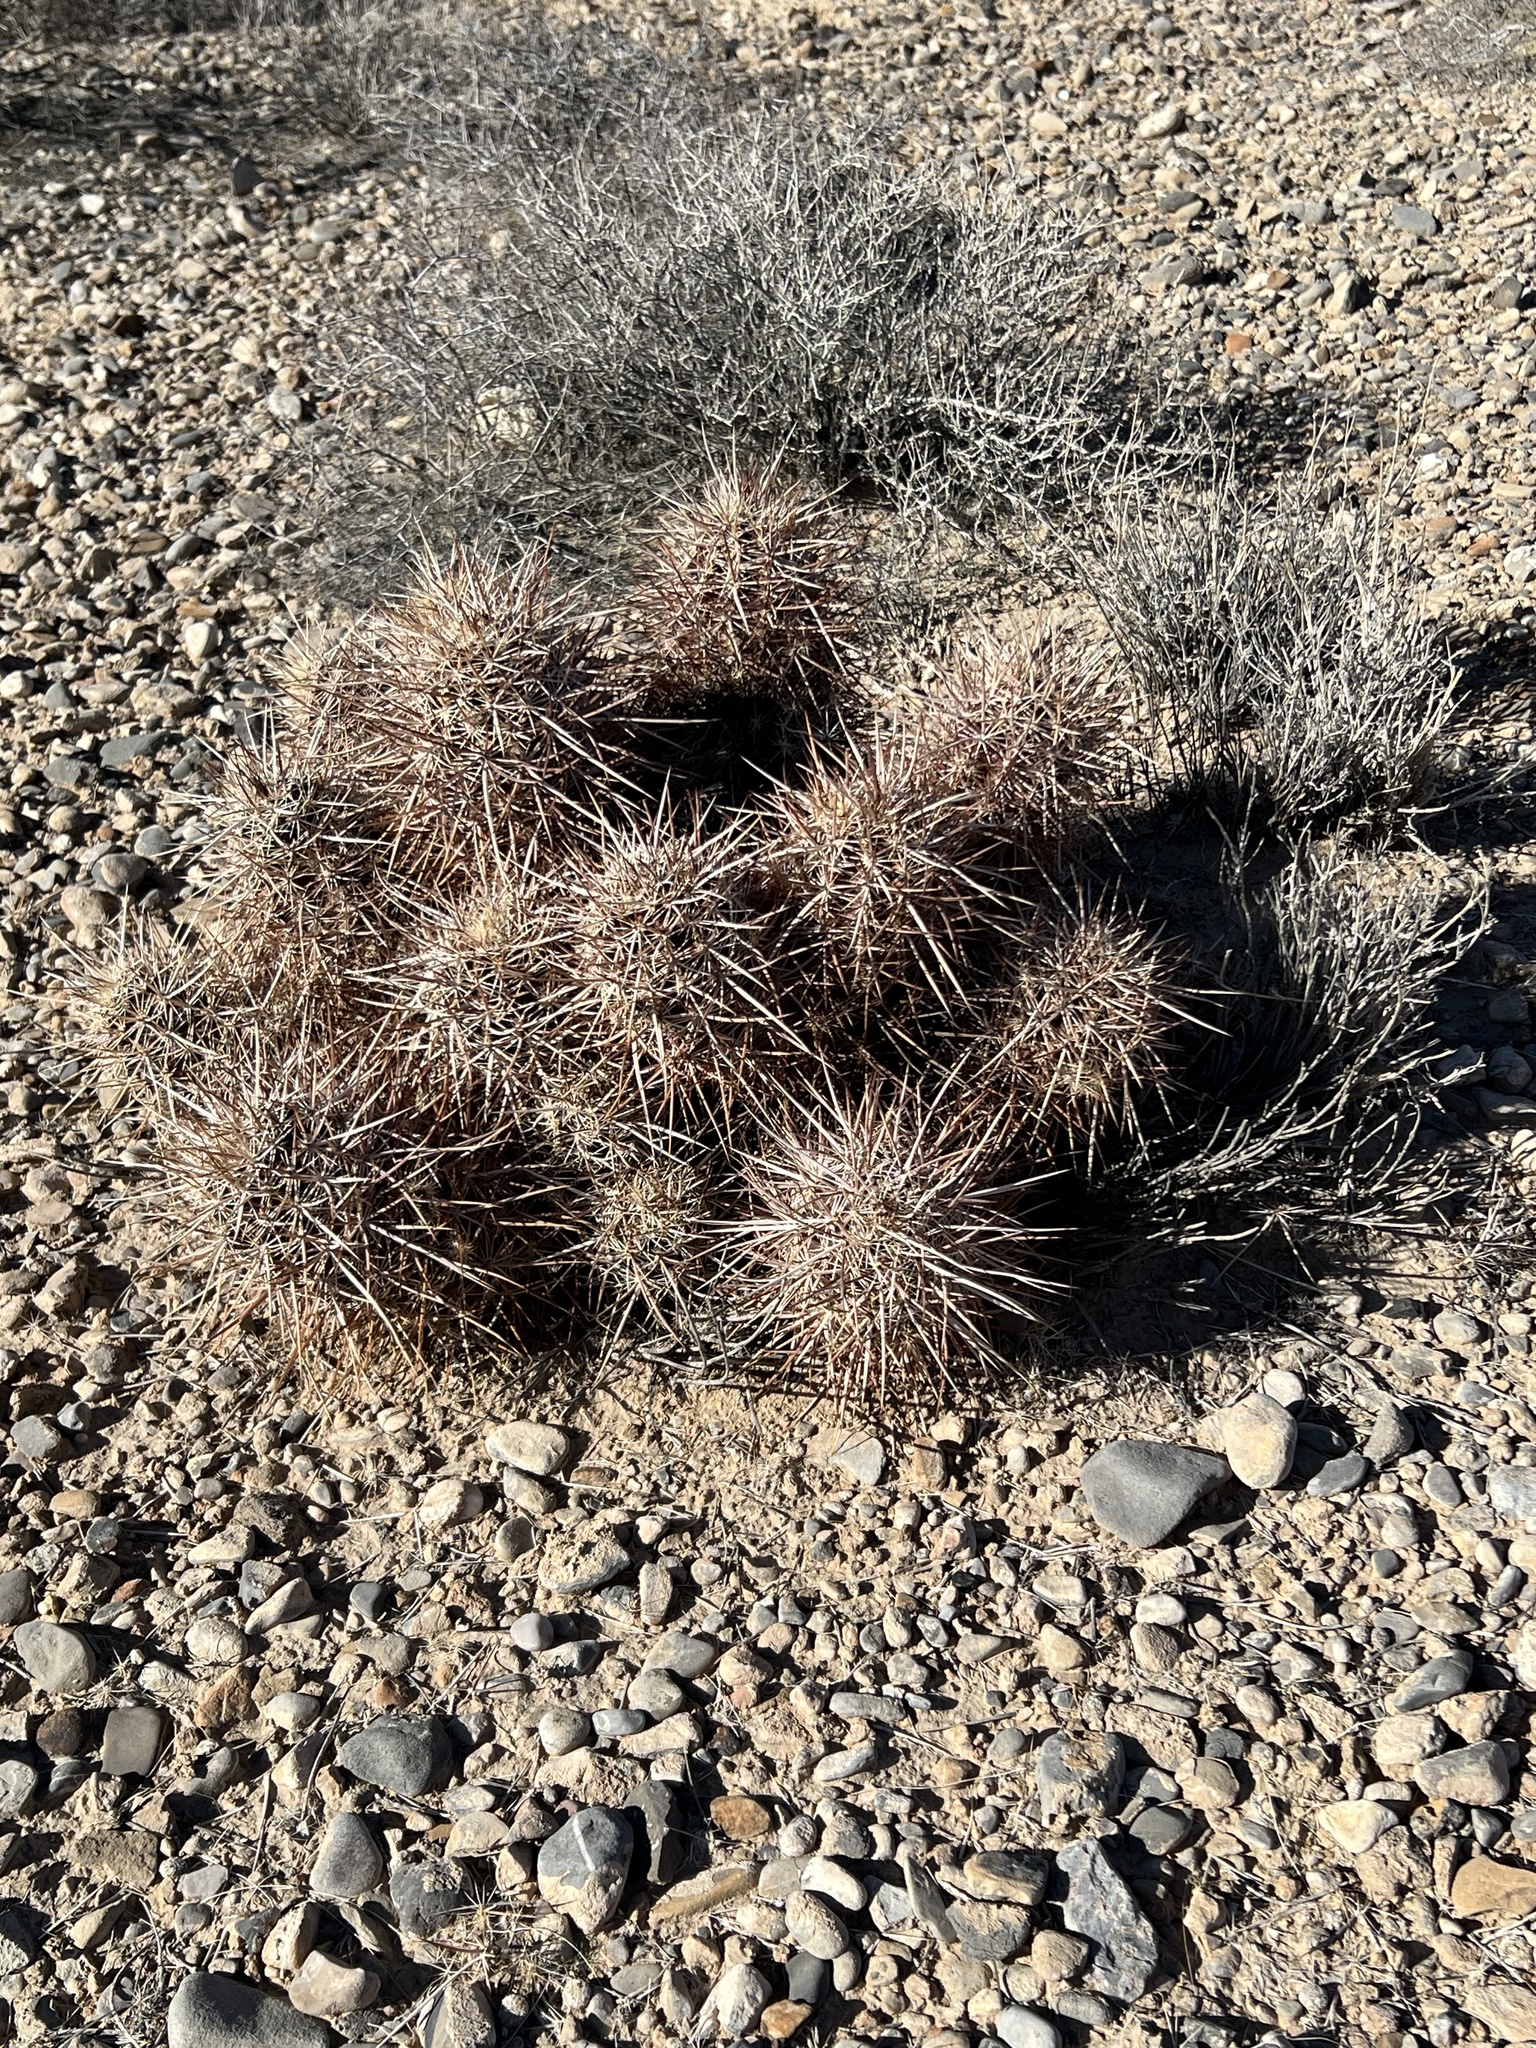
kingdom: Plantae
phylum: Tracheophyta
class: Magnoliopsida
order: Caryophyllales
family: Cactaceae
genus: Echinocereus
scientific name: Echinocereus engelmannii
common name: Engelmann's hedgehog cactus
